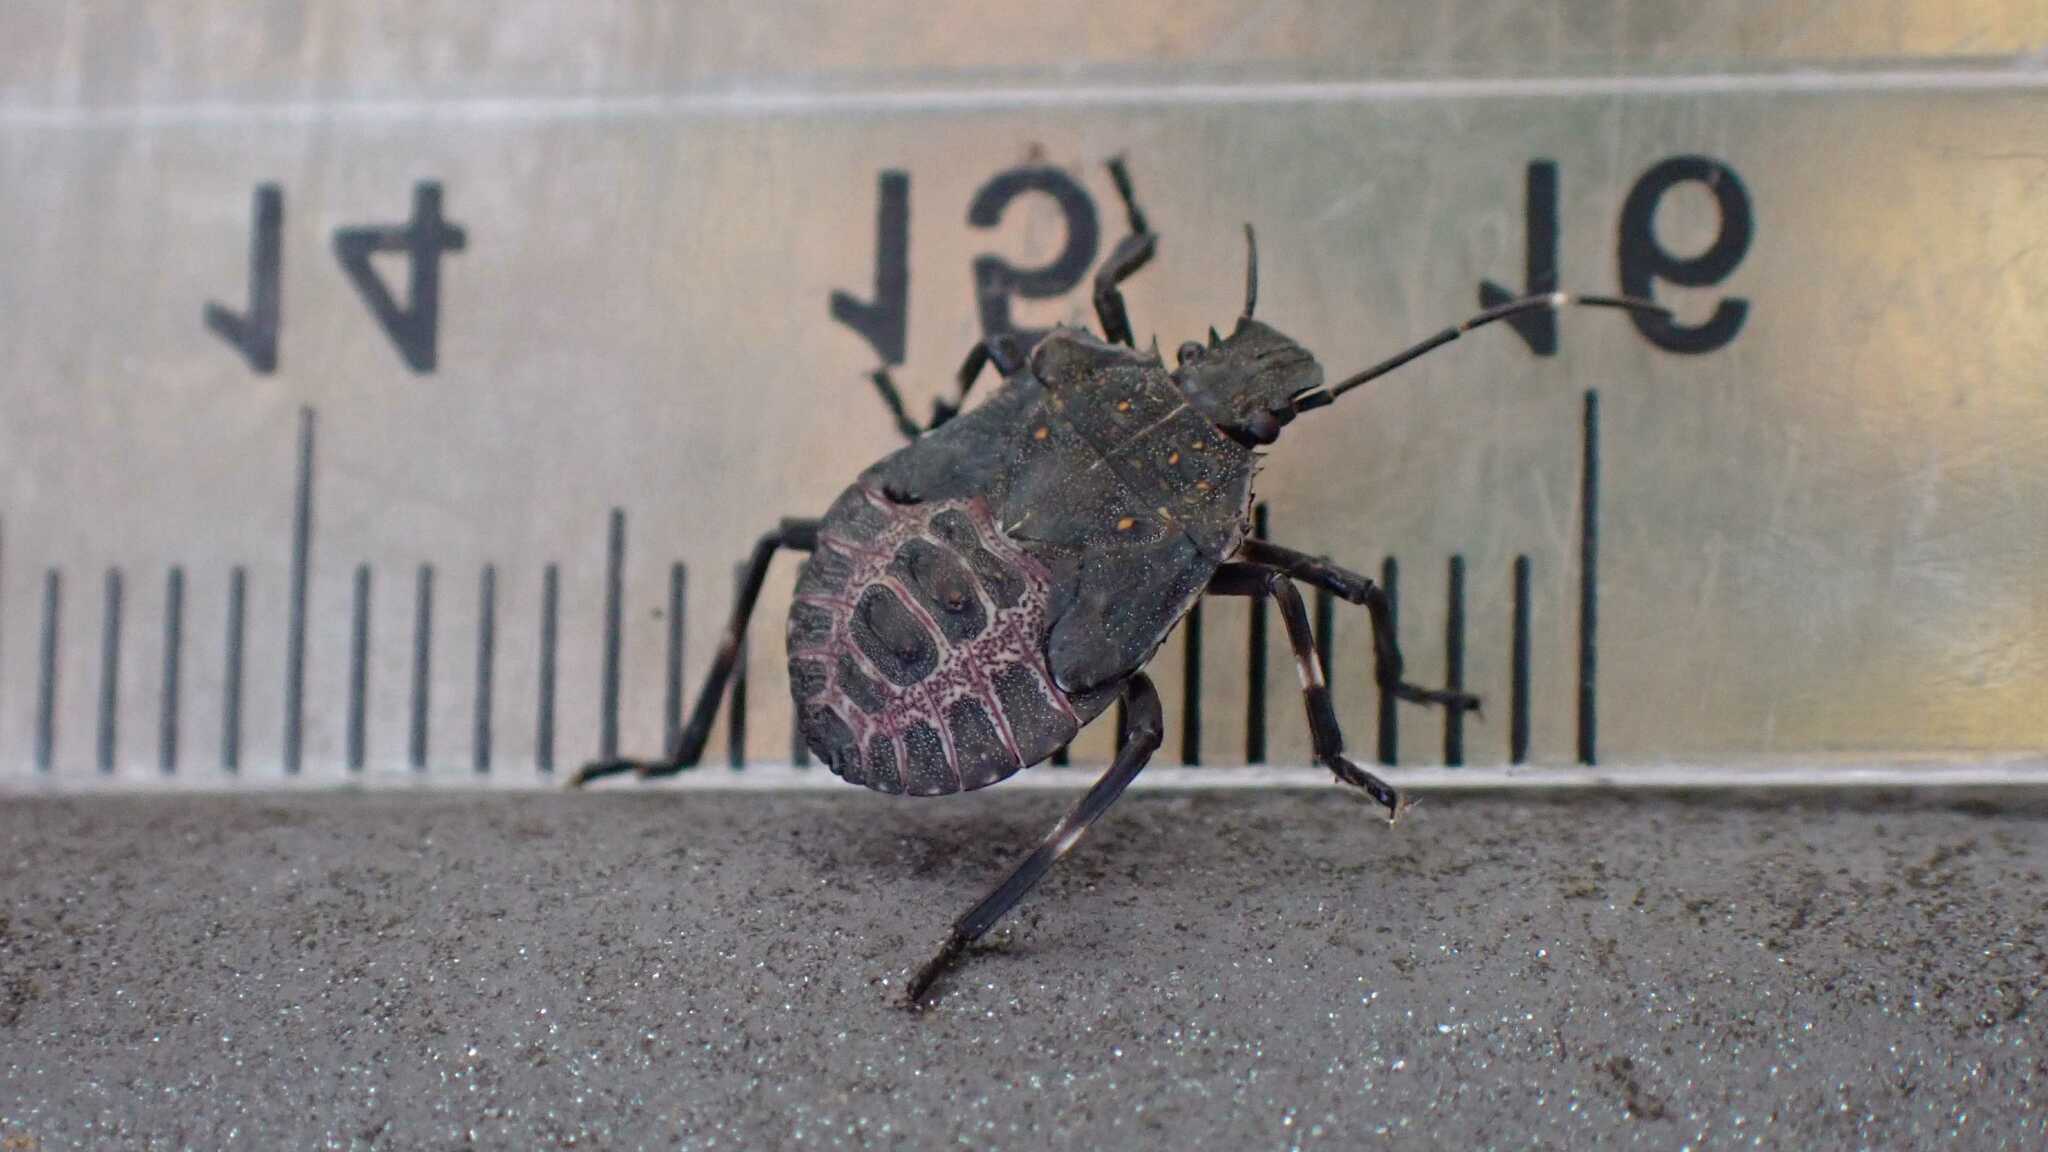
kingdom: Animalia
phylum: Arthropoda
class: Insecta
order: Hemiptera
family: Pentatomidae
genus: Halyomorpha
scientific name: Halyomorpha halys
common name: Brown marmorated stink bug
